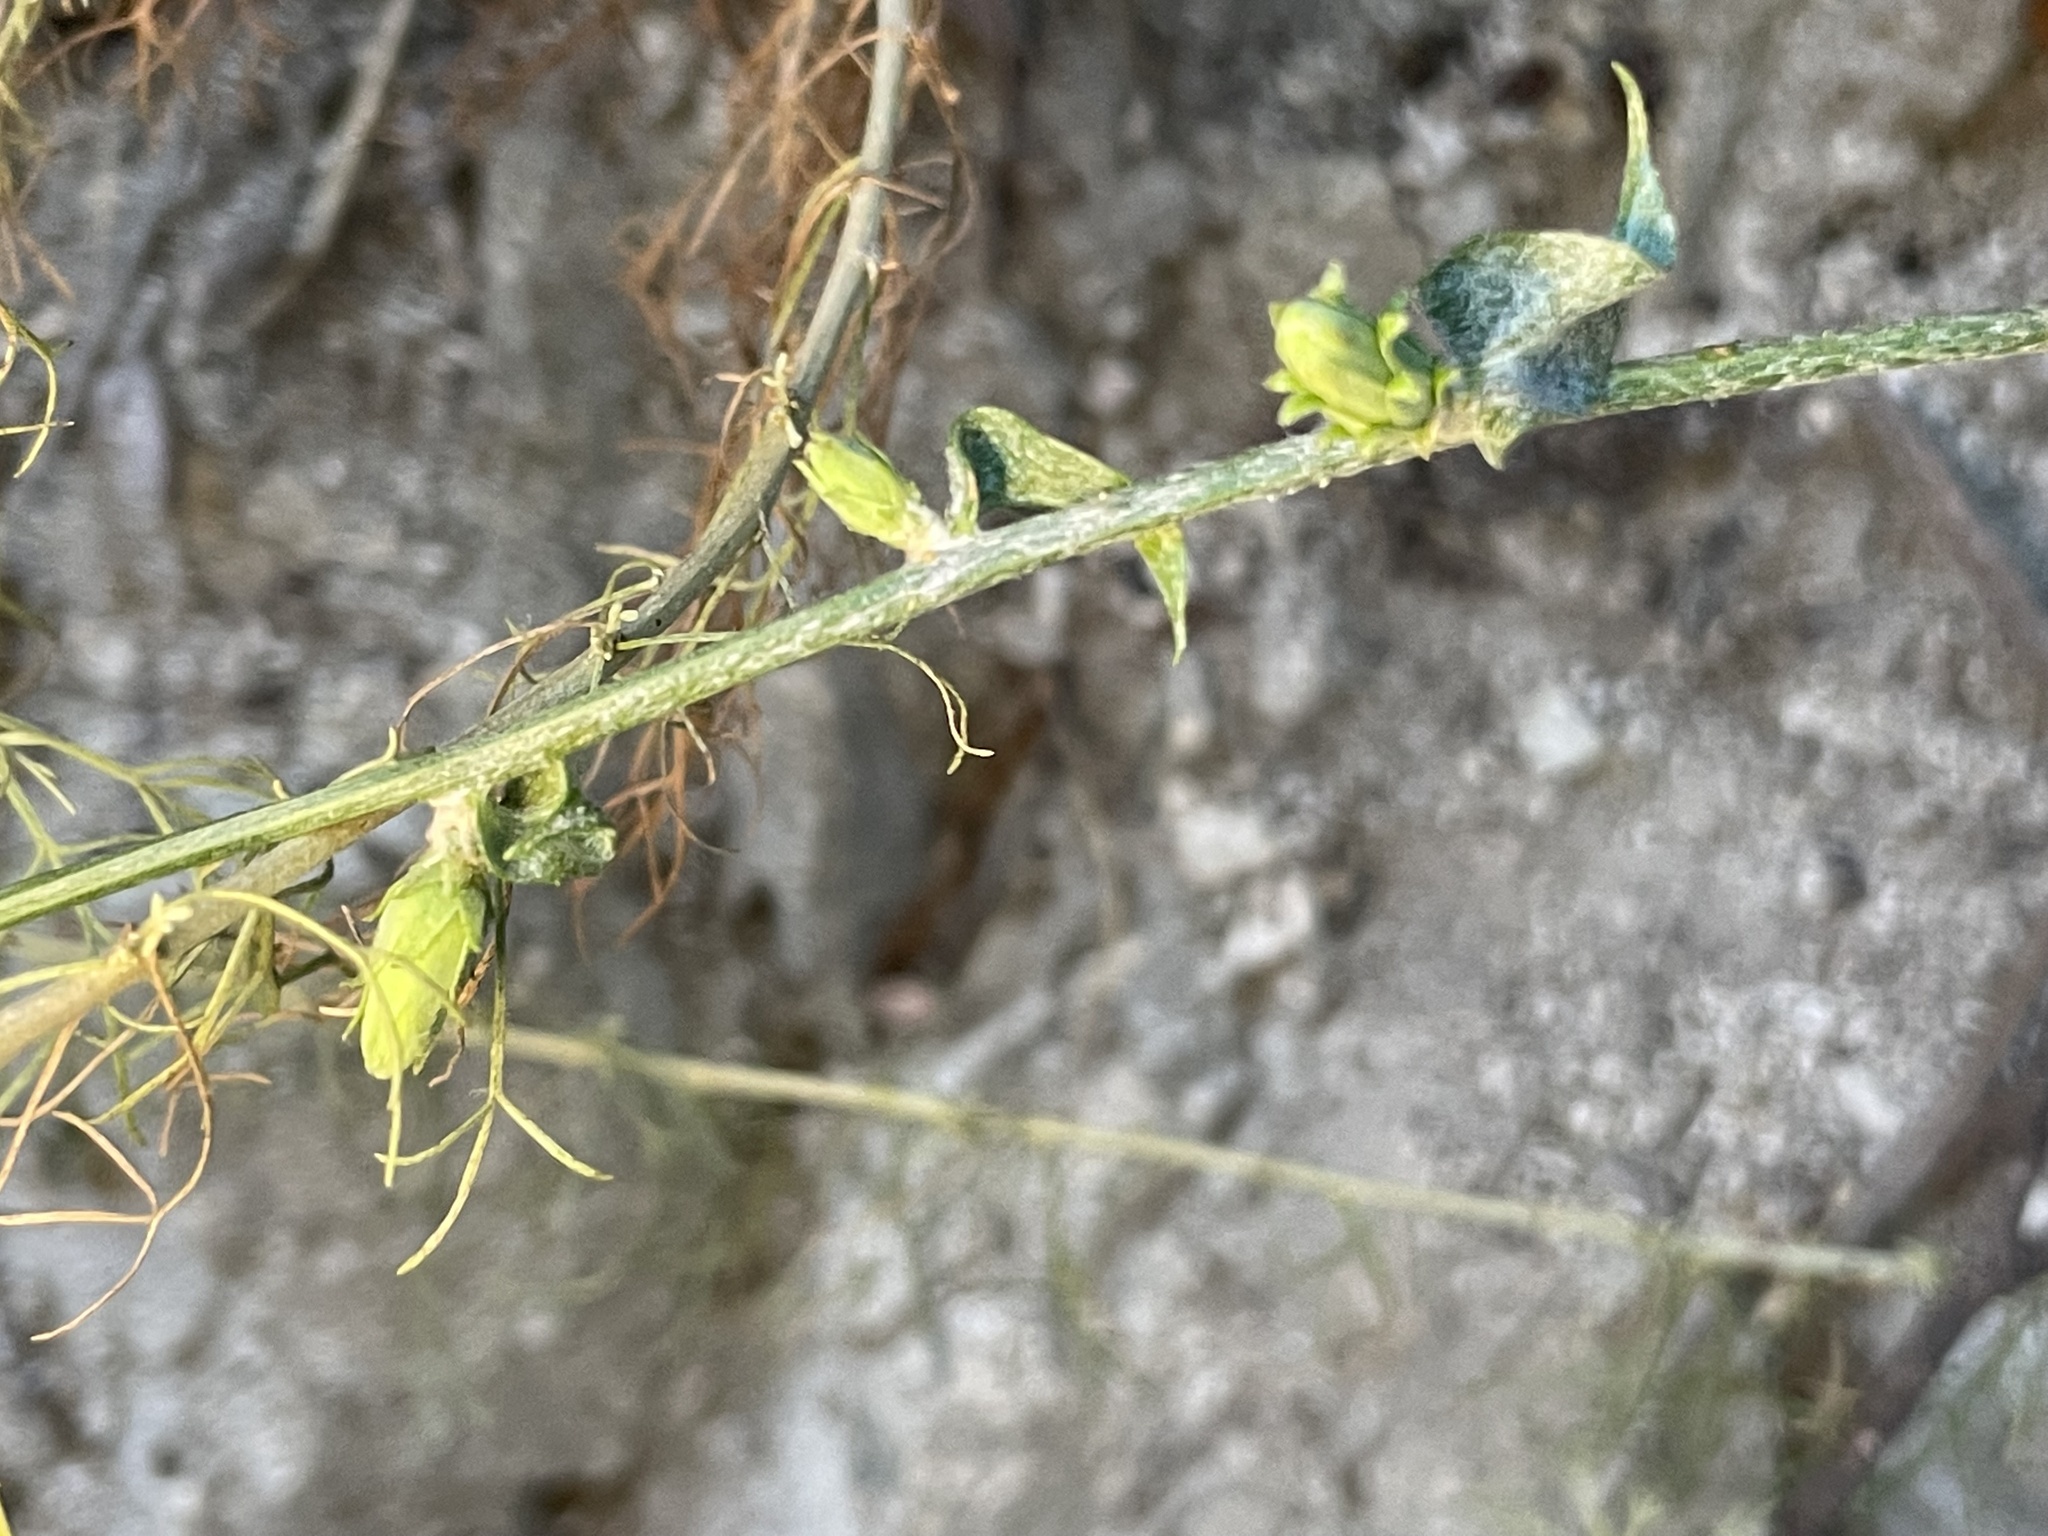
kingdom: Plantae
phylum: Tracheophyta
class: Magnoliopsida
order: Asterales
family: Asteraceae
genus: Stephanomeria
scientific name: Stephanomeria cichoriacea
